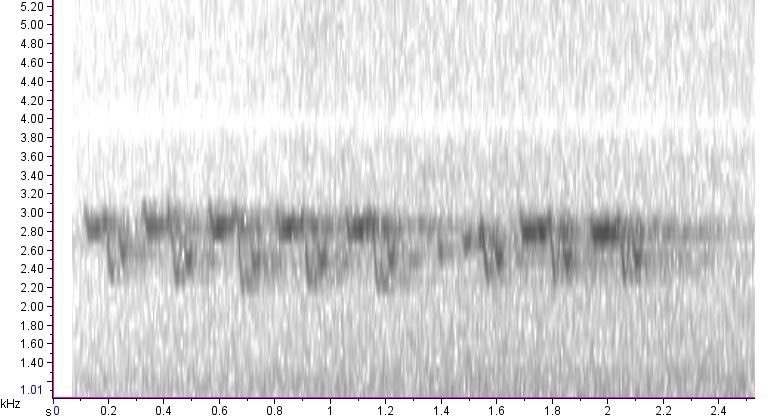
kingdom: Animalia
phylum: Chordata
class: Aves
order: Passeriformes
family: Paridae
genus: Baeolophus
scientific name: Baeolophus bicolor
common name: Tufted titmouse
